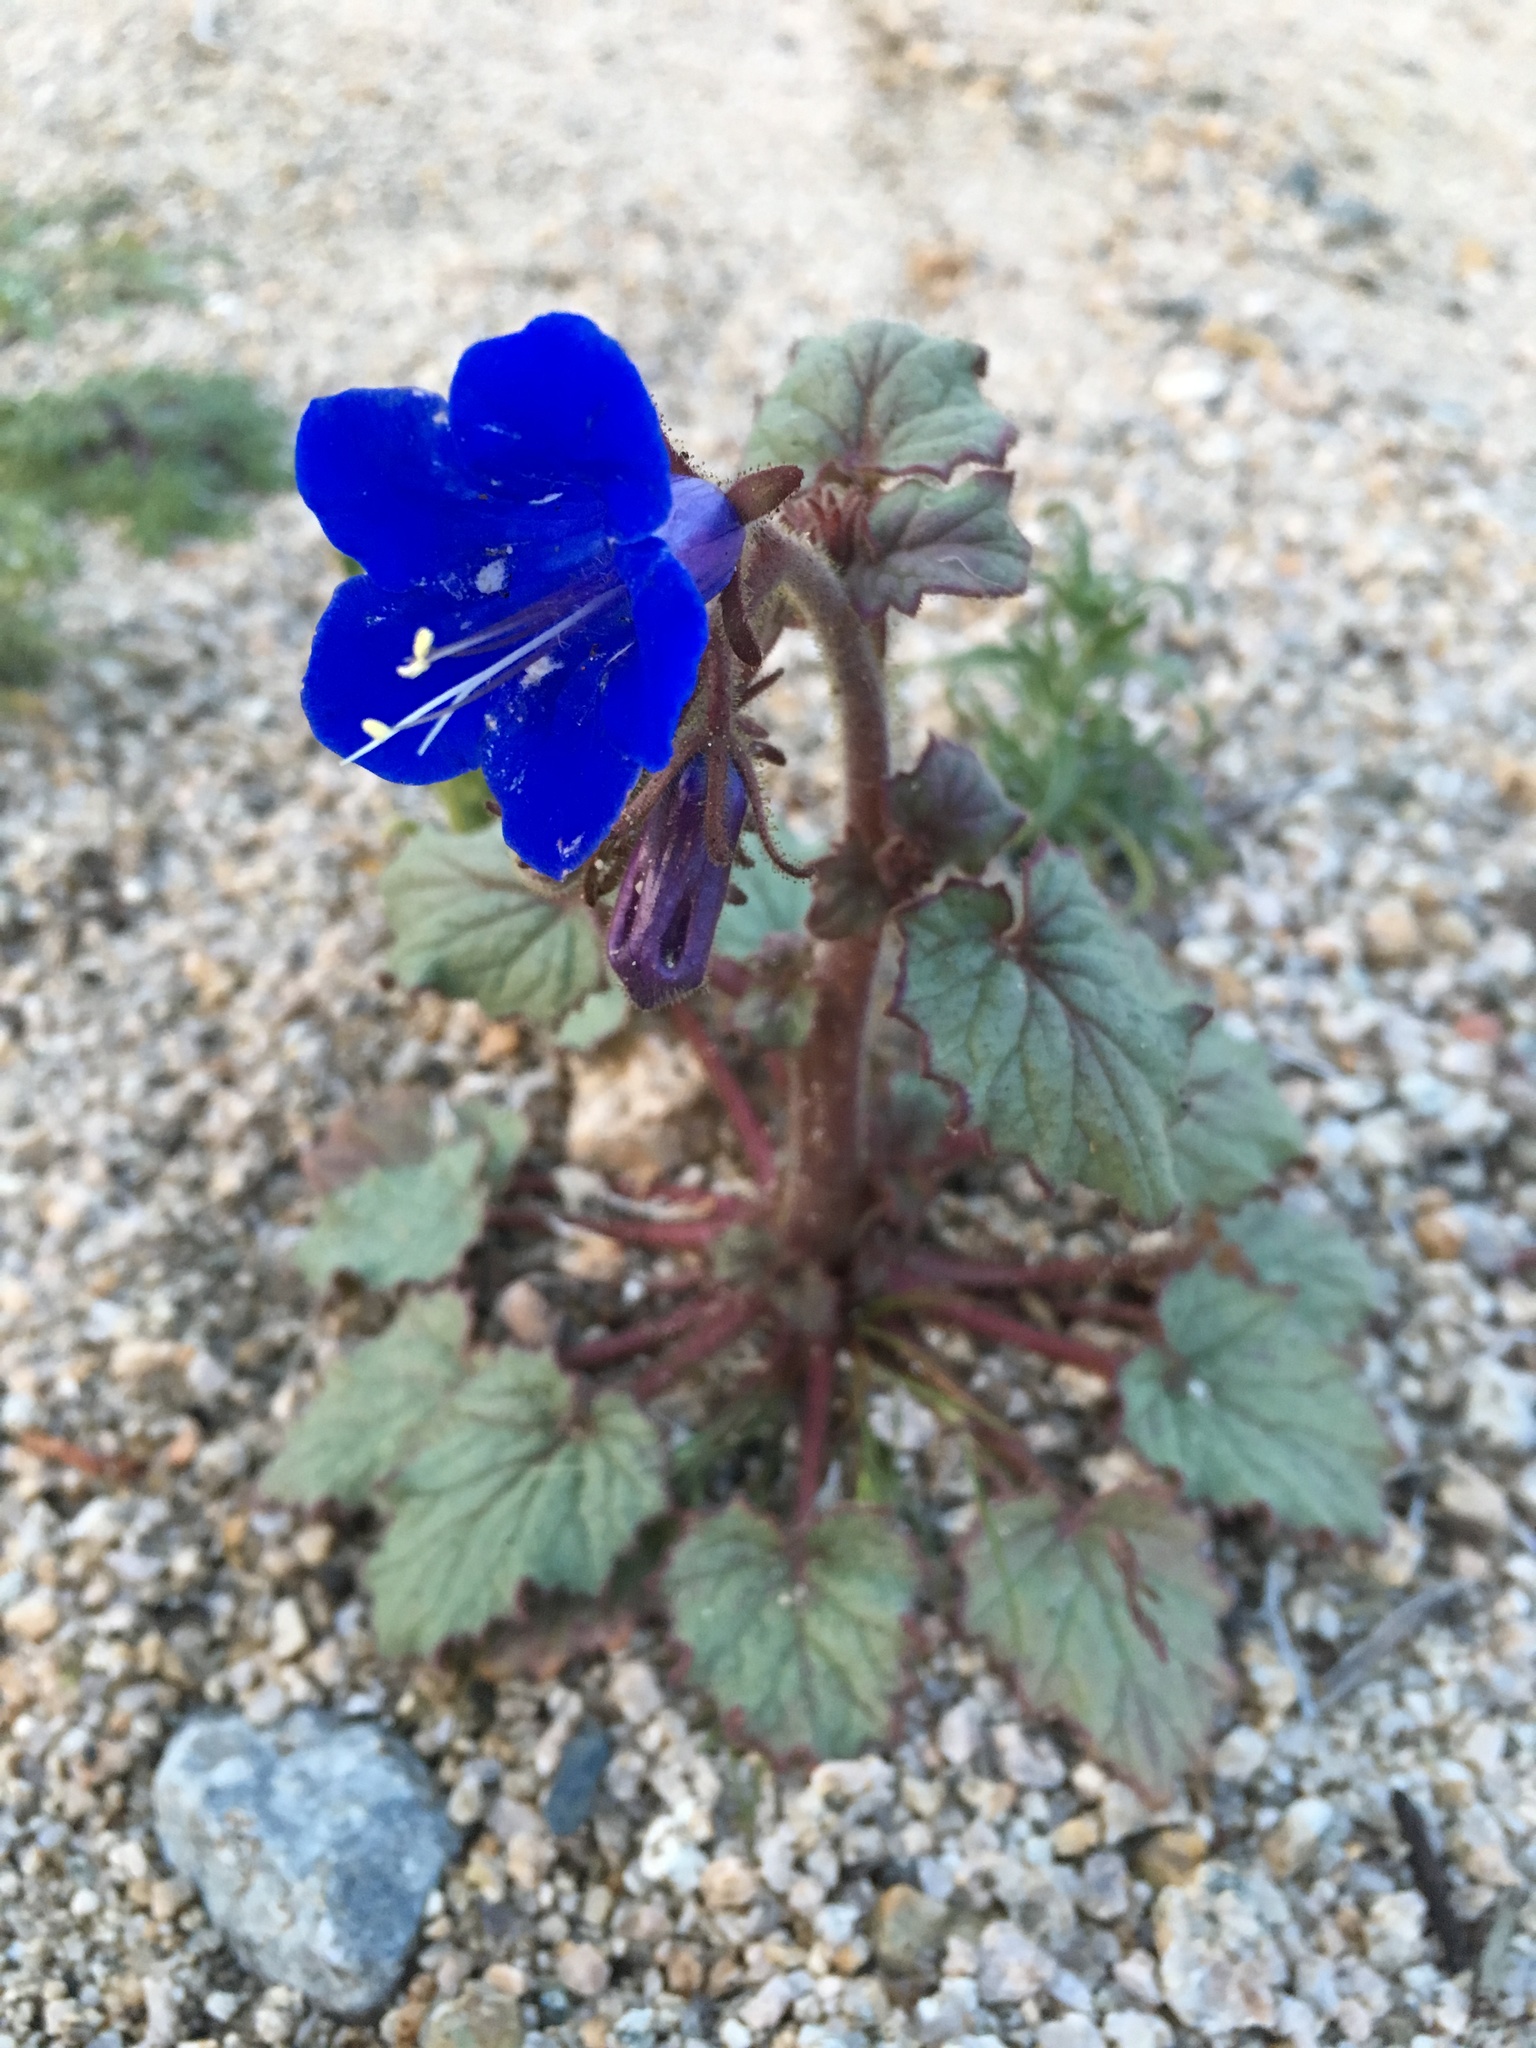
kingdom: Plantae
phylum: Tracheophyta
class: Magnoliopsida
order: Boraginales
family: Hydrophyllaceae
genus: Phacelia
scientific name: Phacelia campanularia
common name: California bluebell
